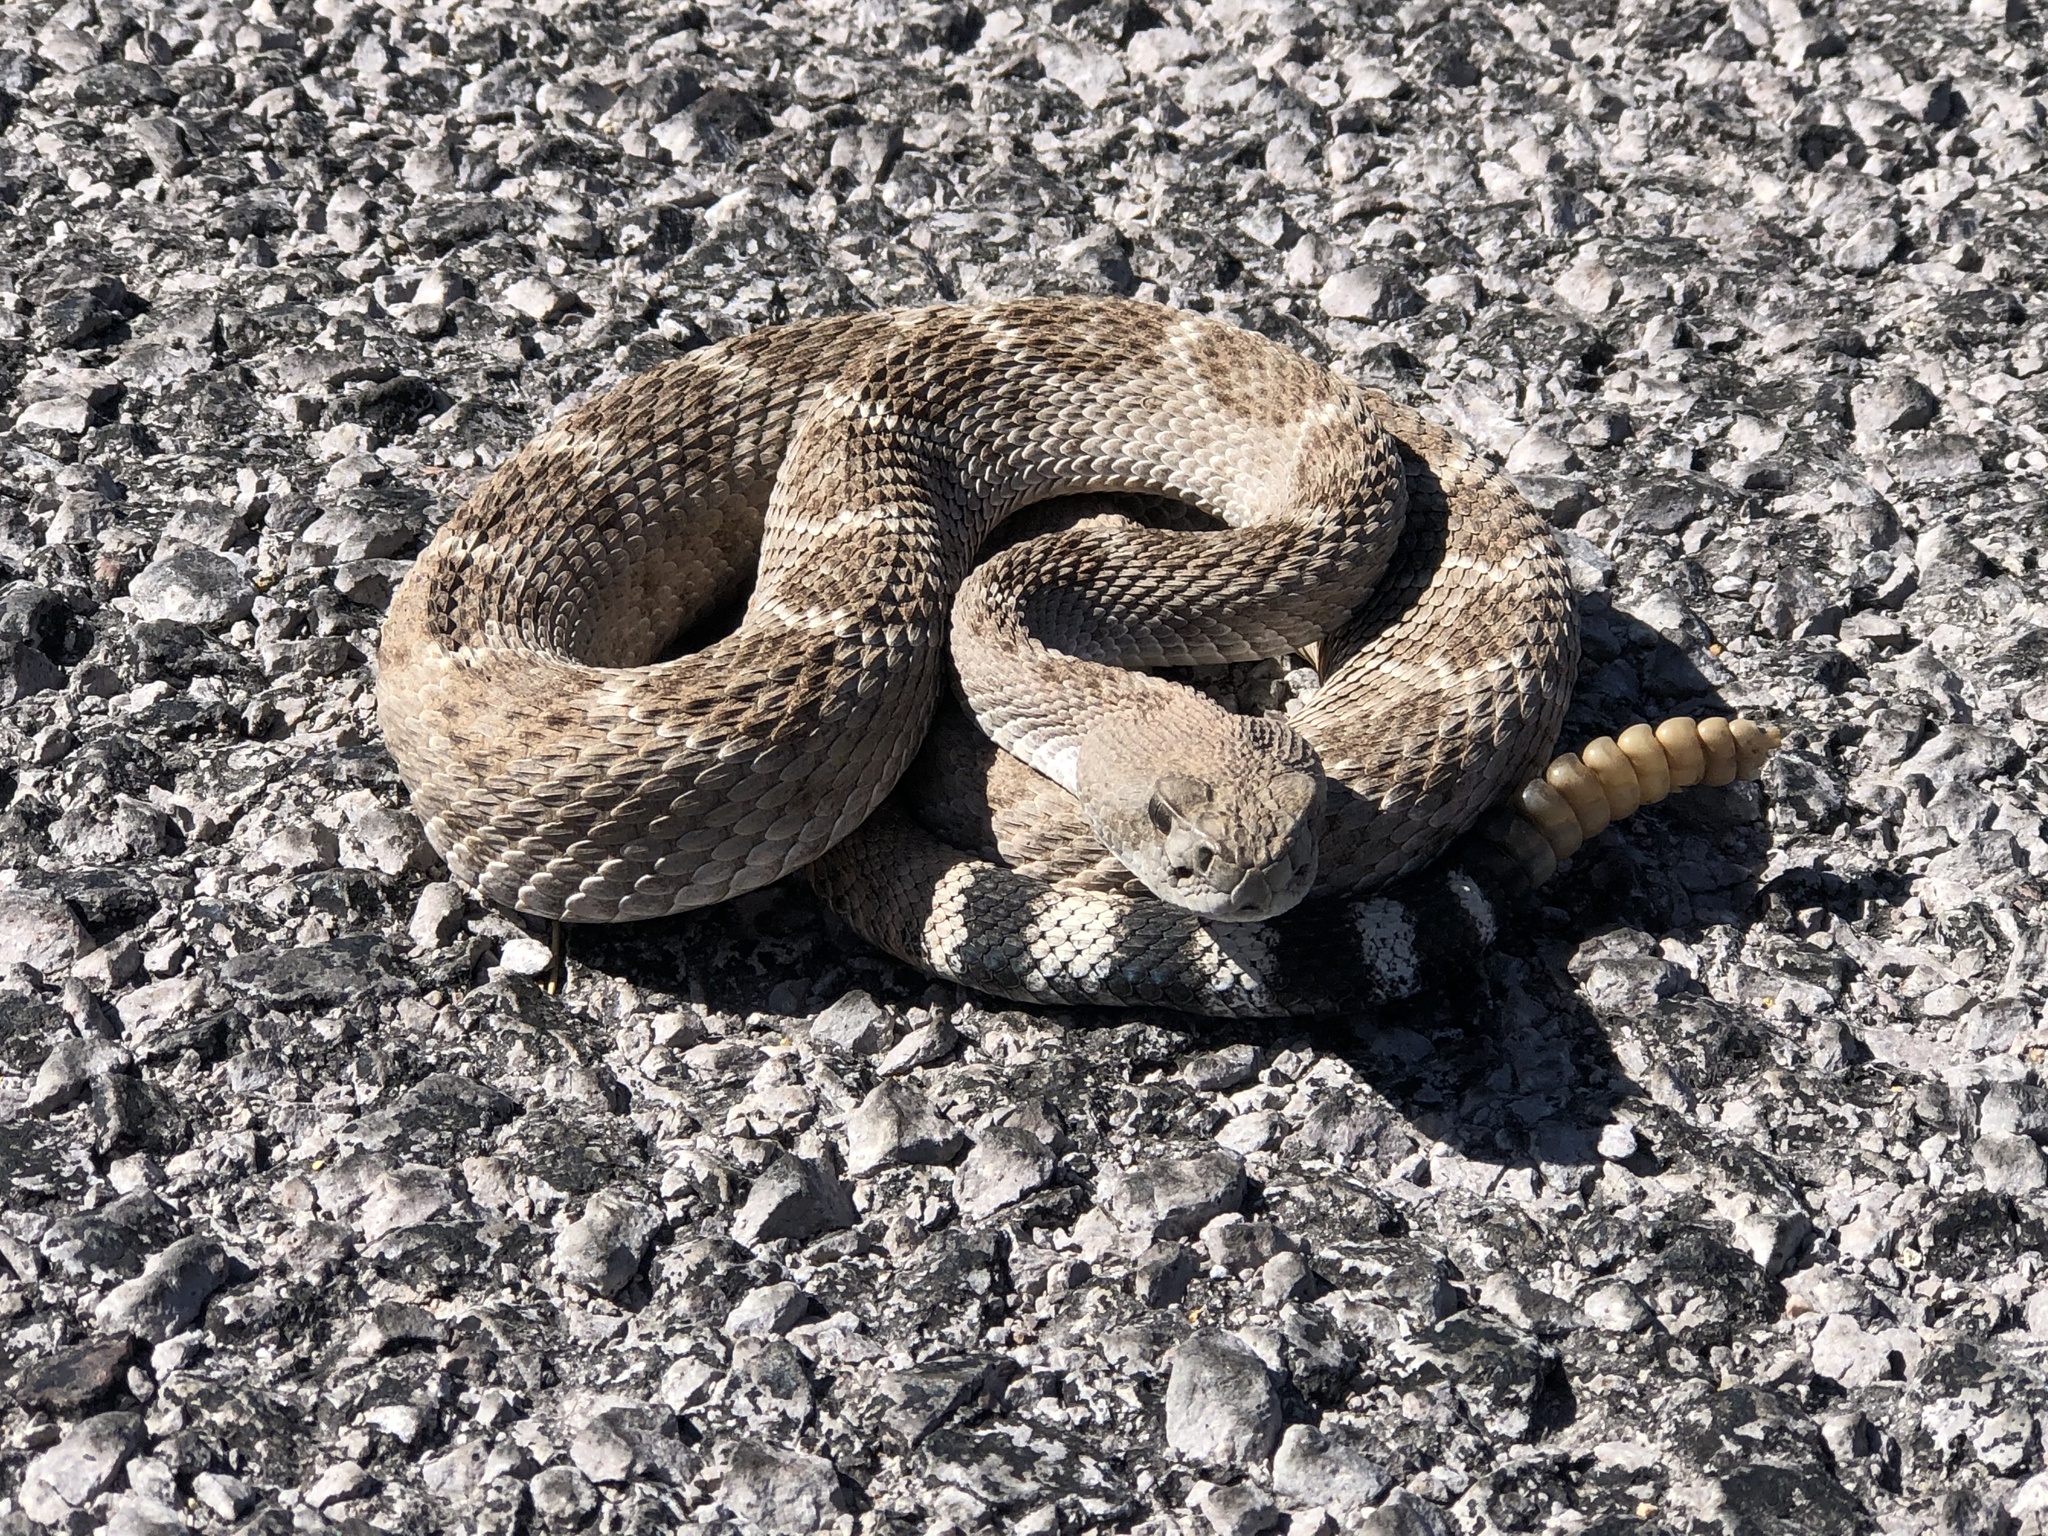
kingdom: Animalia
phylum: Chordata
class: Squamata
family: Viperidae
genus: Crotalus
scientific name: Crotalus atrox
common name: Western diamond-backed rattlesnake
